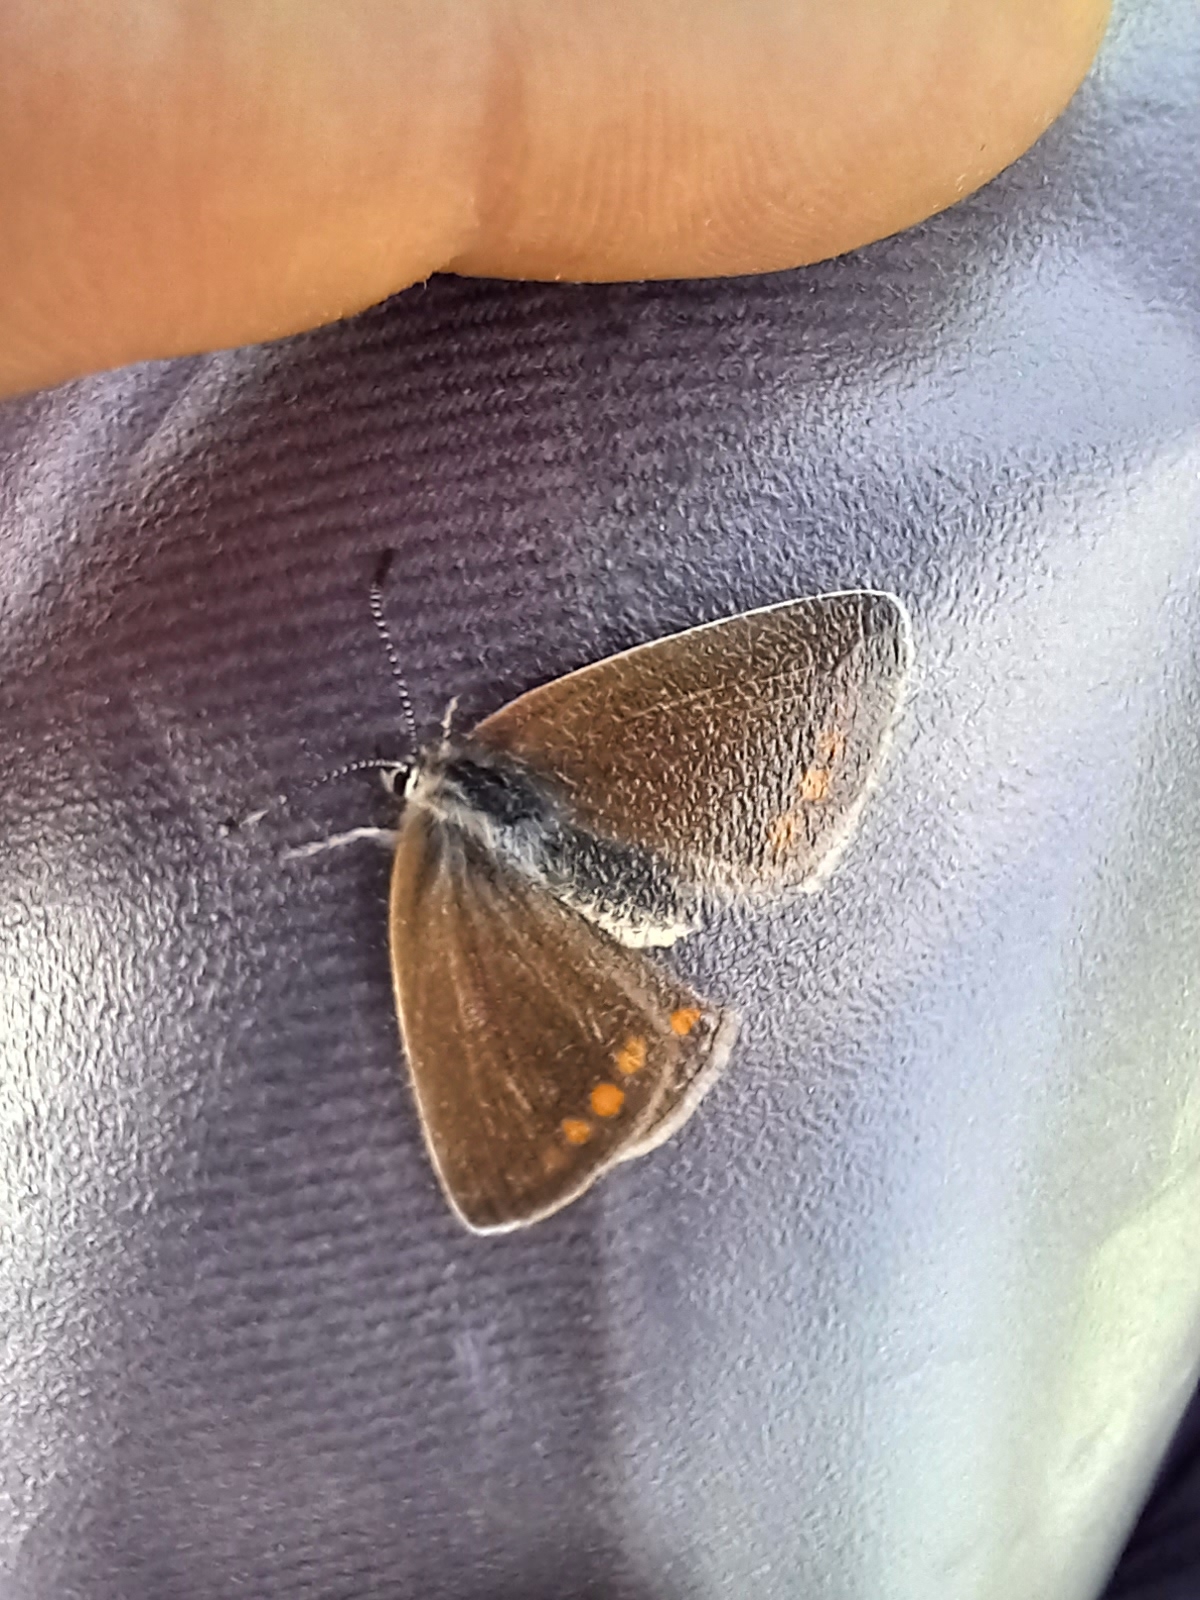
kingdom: Animalia
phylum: Arthropoda
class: Insecta
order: Lepidoptera
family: Lycaenidae
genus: Polyommatus
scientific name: Polyommatus icarus
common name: Common blue
